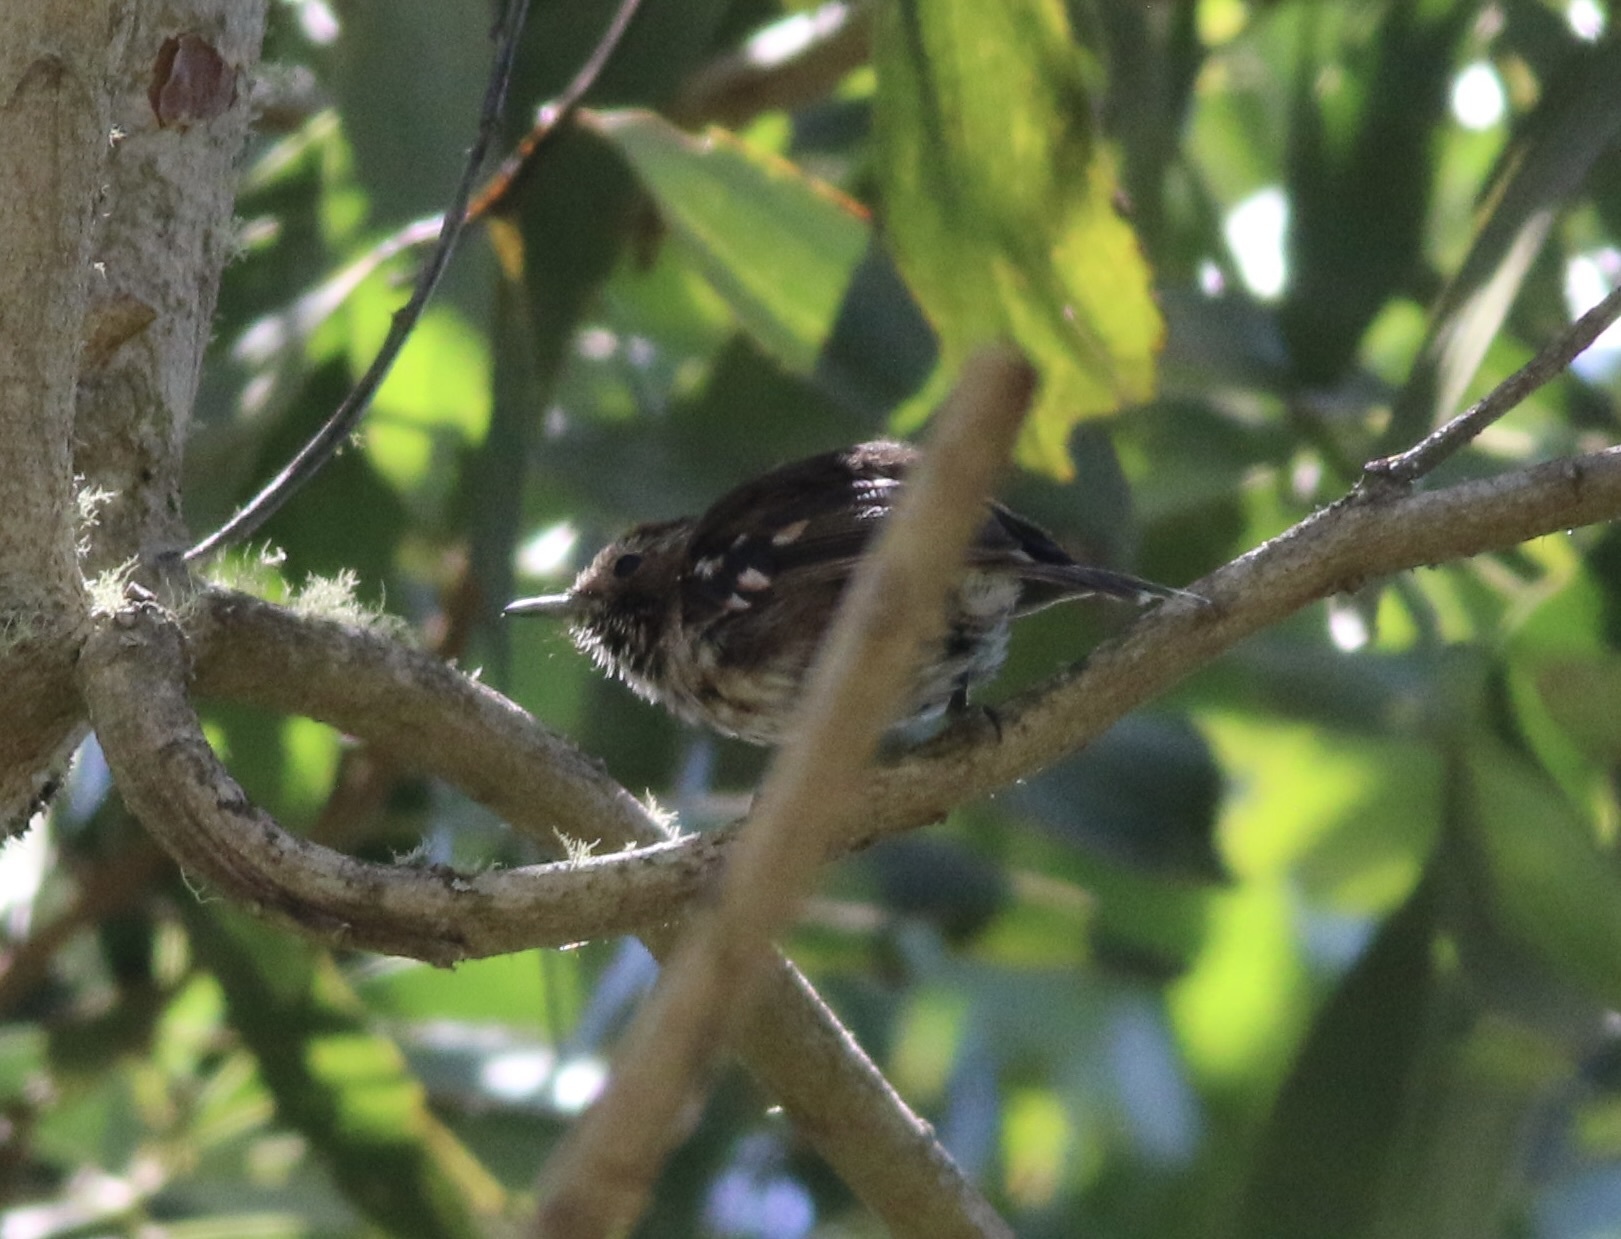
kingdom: Animalia
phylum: Chordata
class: Aves
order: Passeriformes
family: Monarchidae
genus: Chasiempis
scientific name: Chasiempis sandwichensis
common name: Hawaii elepaio
